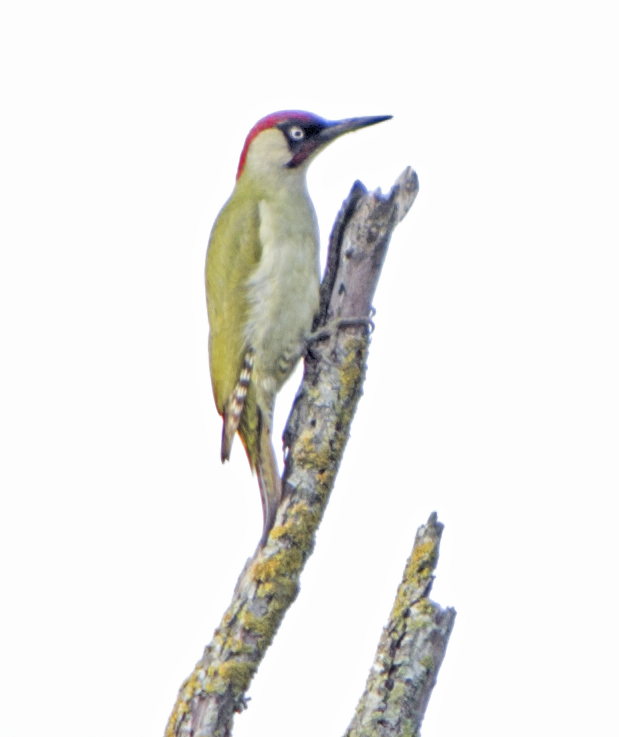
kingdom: Animalia
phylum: Chordata
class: Aves
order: Piciformes
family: Picidae
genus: Picus
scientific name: Picus viridis
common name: European green woodpecker
